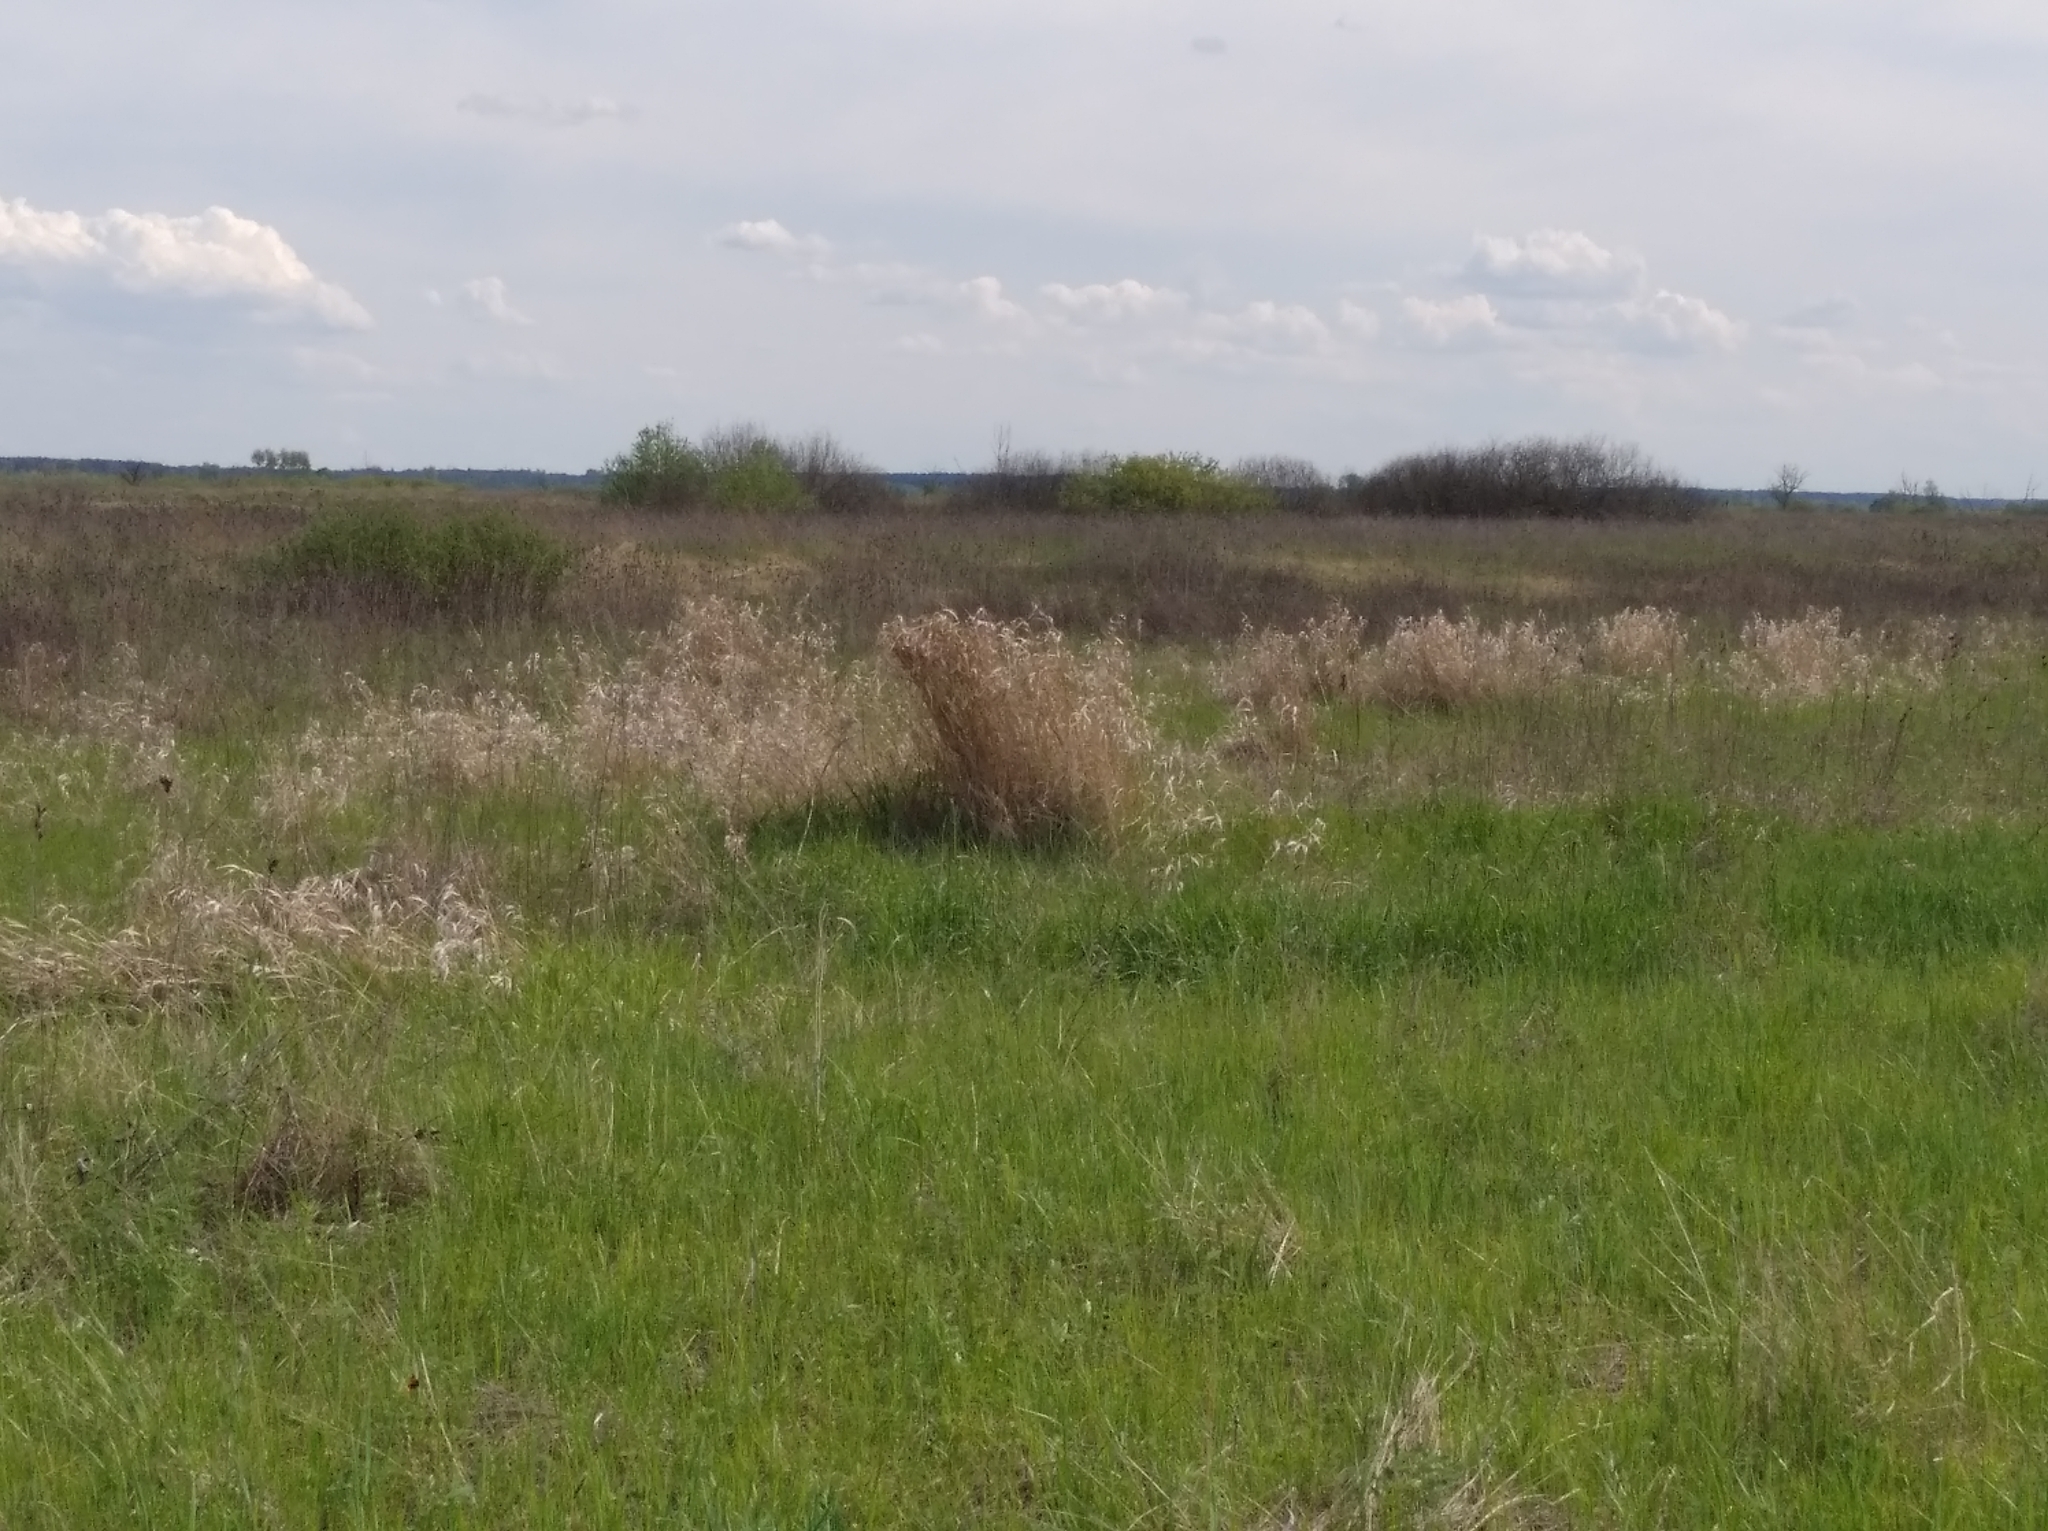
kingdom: Plantae
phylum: Tracheophyta
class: Liliopsida
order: Asparagales
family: Iridaceae
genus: Iris
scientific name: Iris sibirica
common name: Siberian iris
